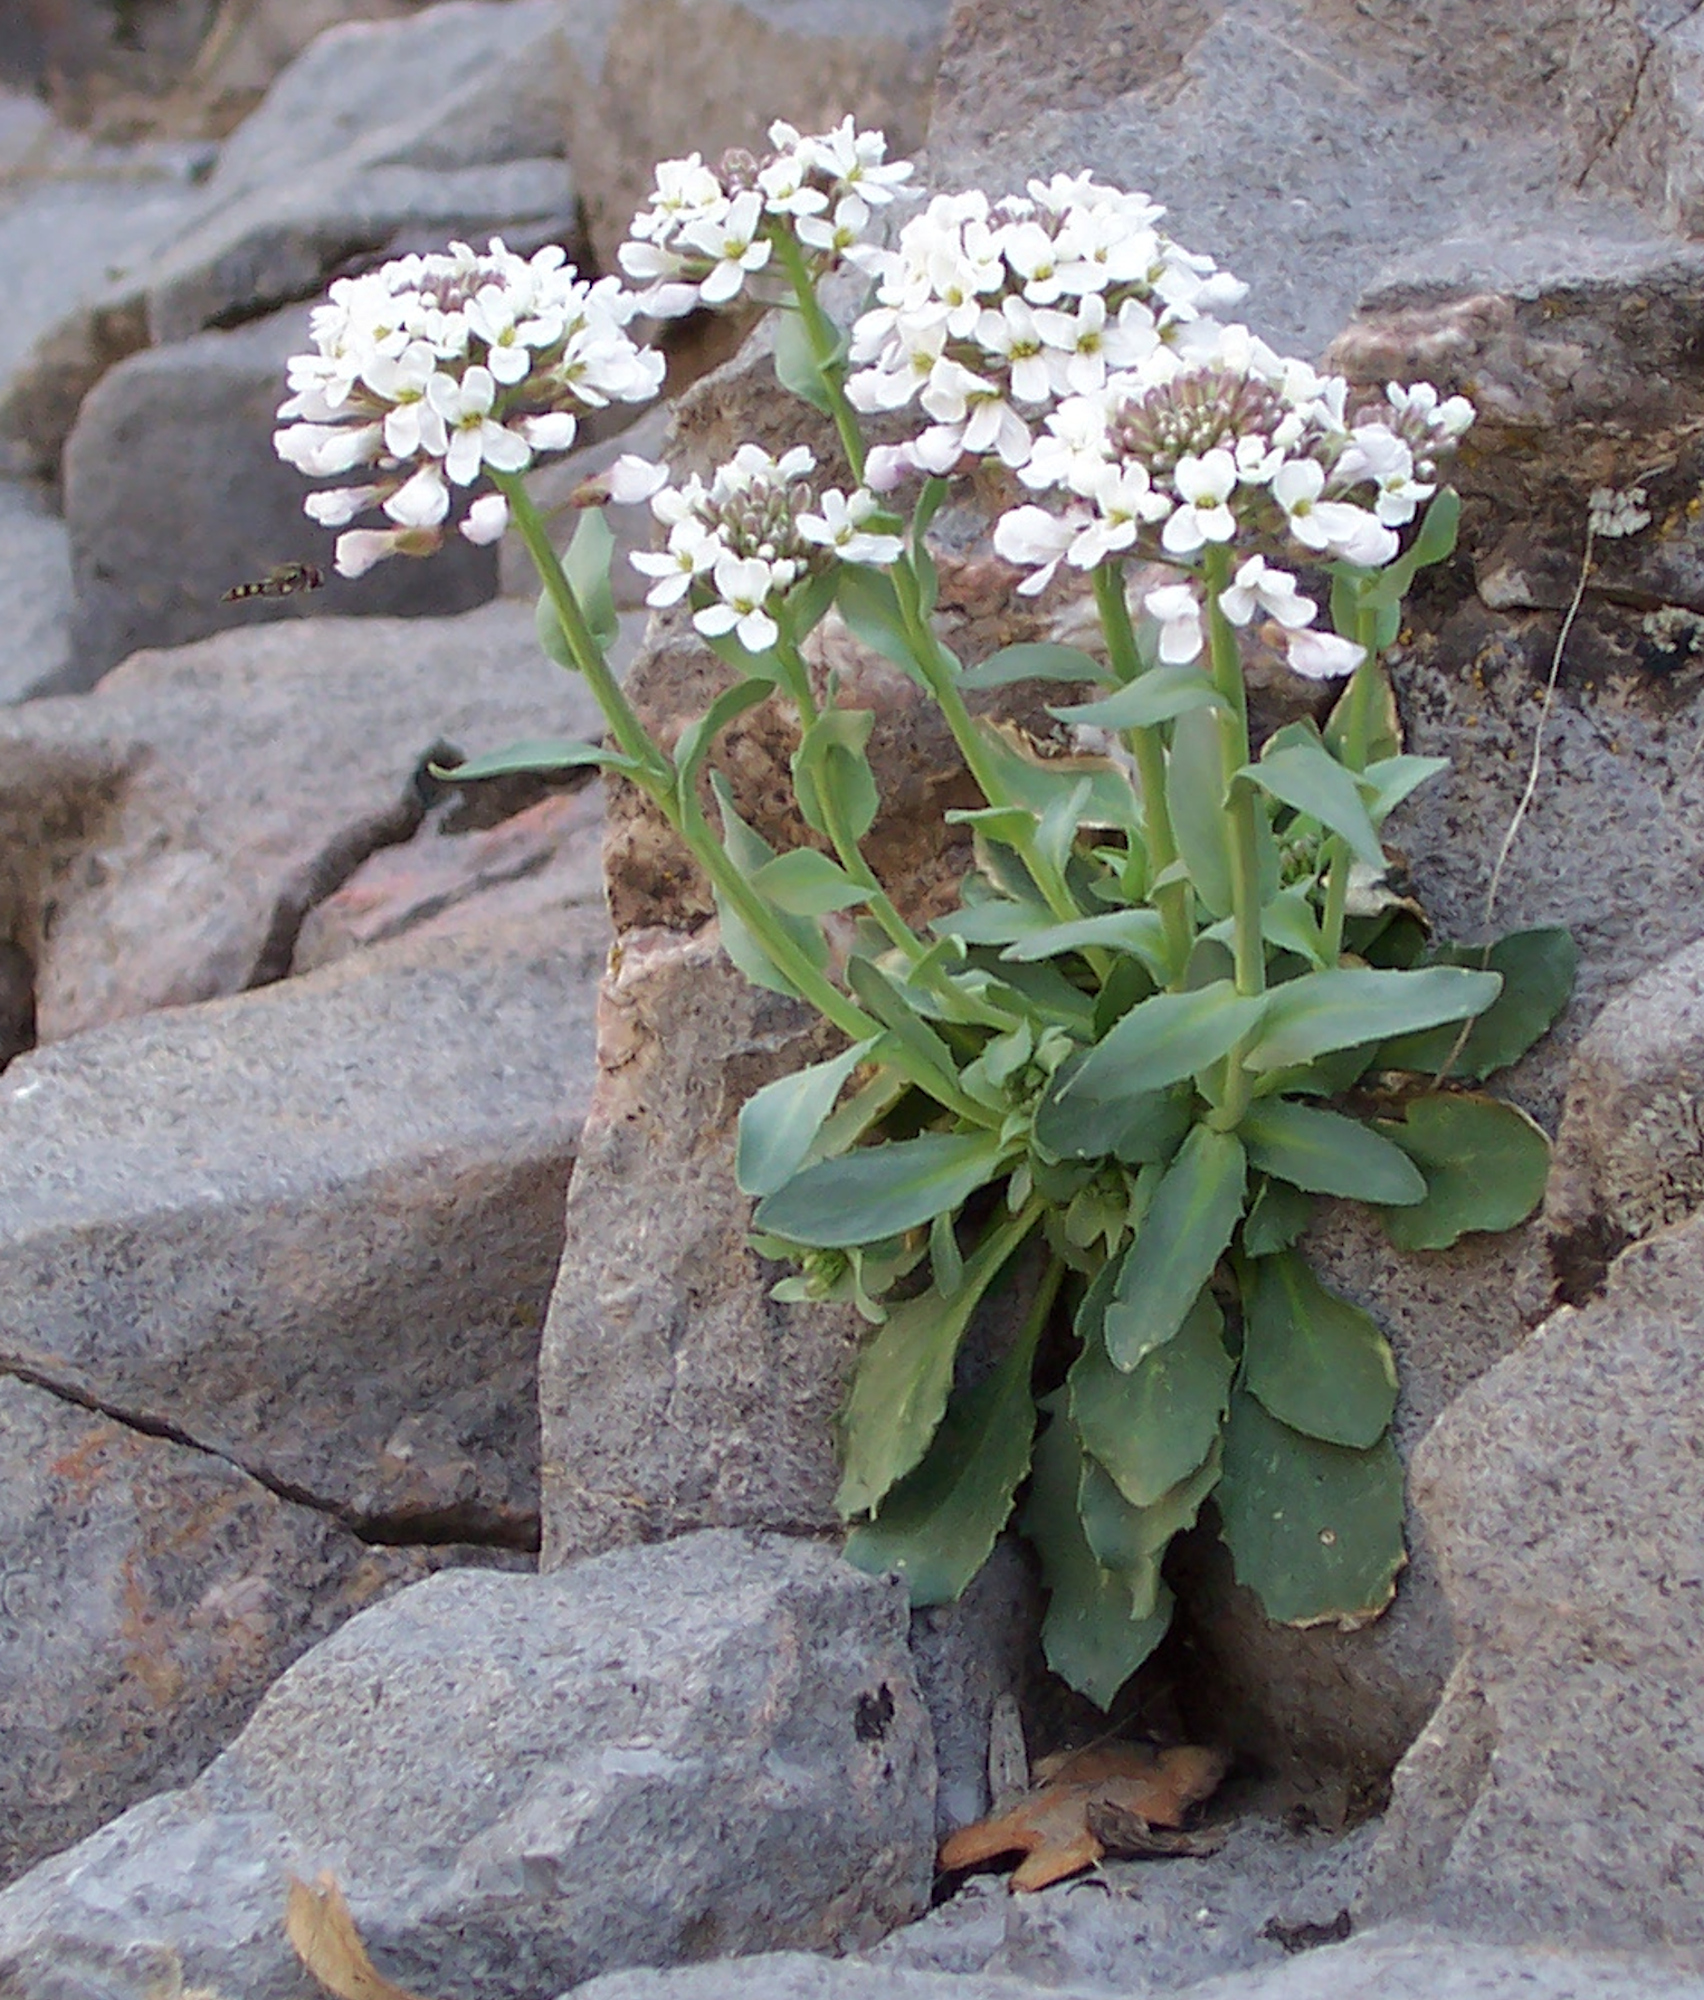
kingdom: Plantae
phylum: Tracheophyta
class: Magnoliopsida
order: Brassicales
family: Brassicaceae
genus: Noccaea
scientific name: Noccaea fendleri
